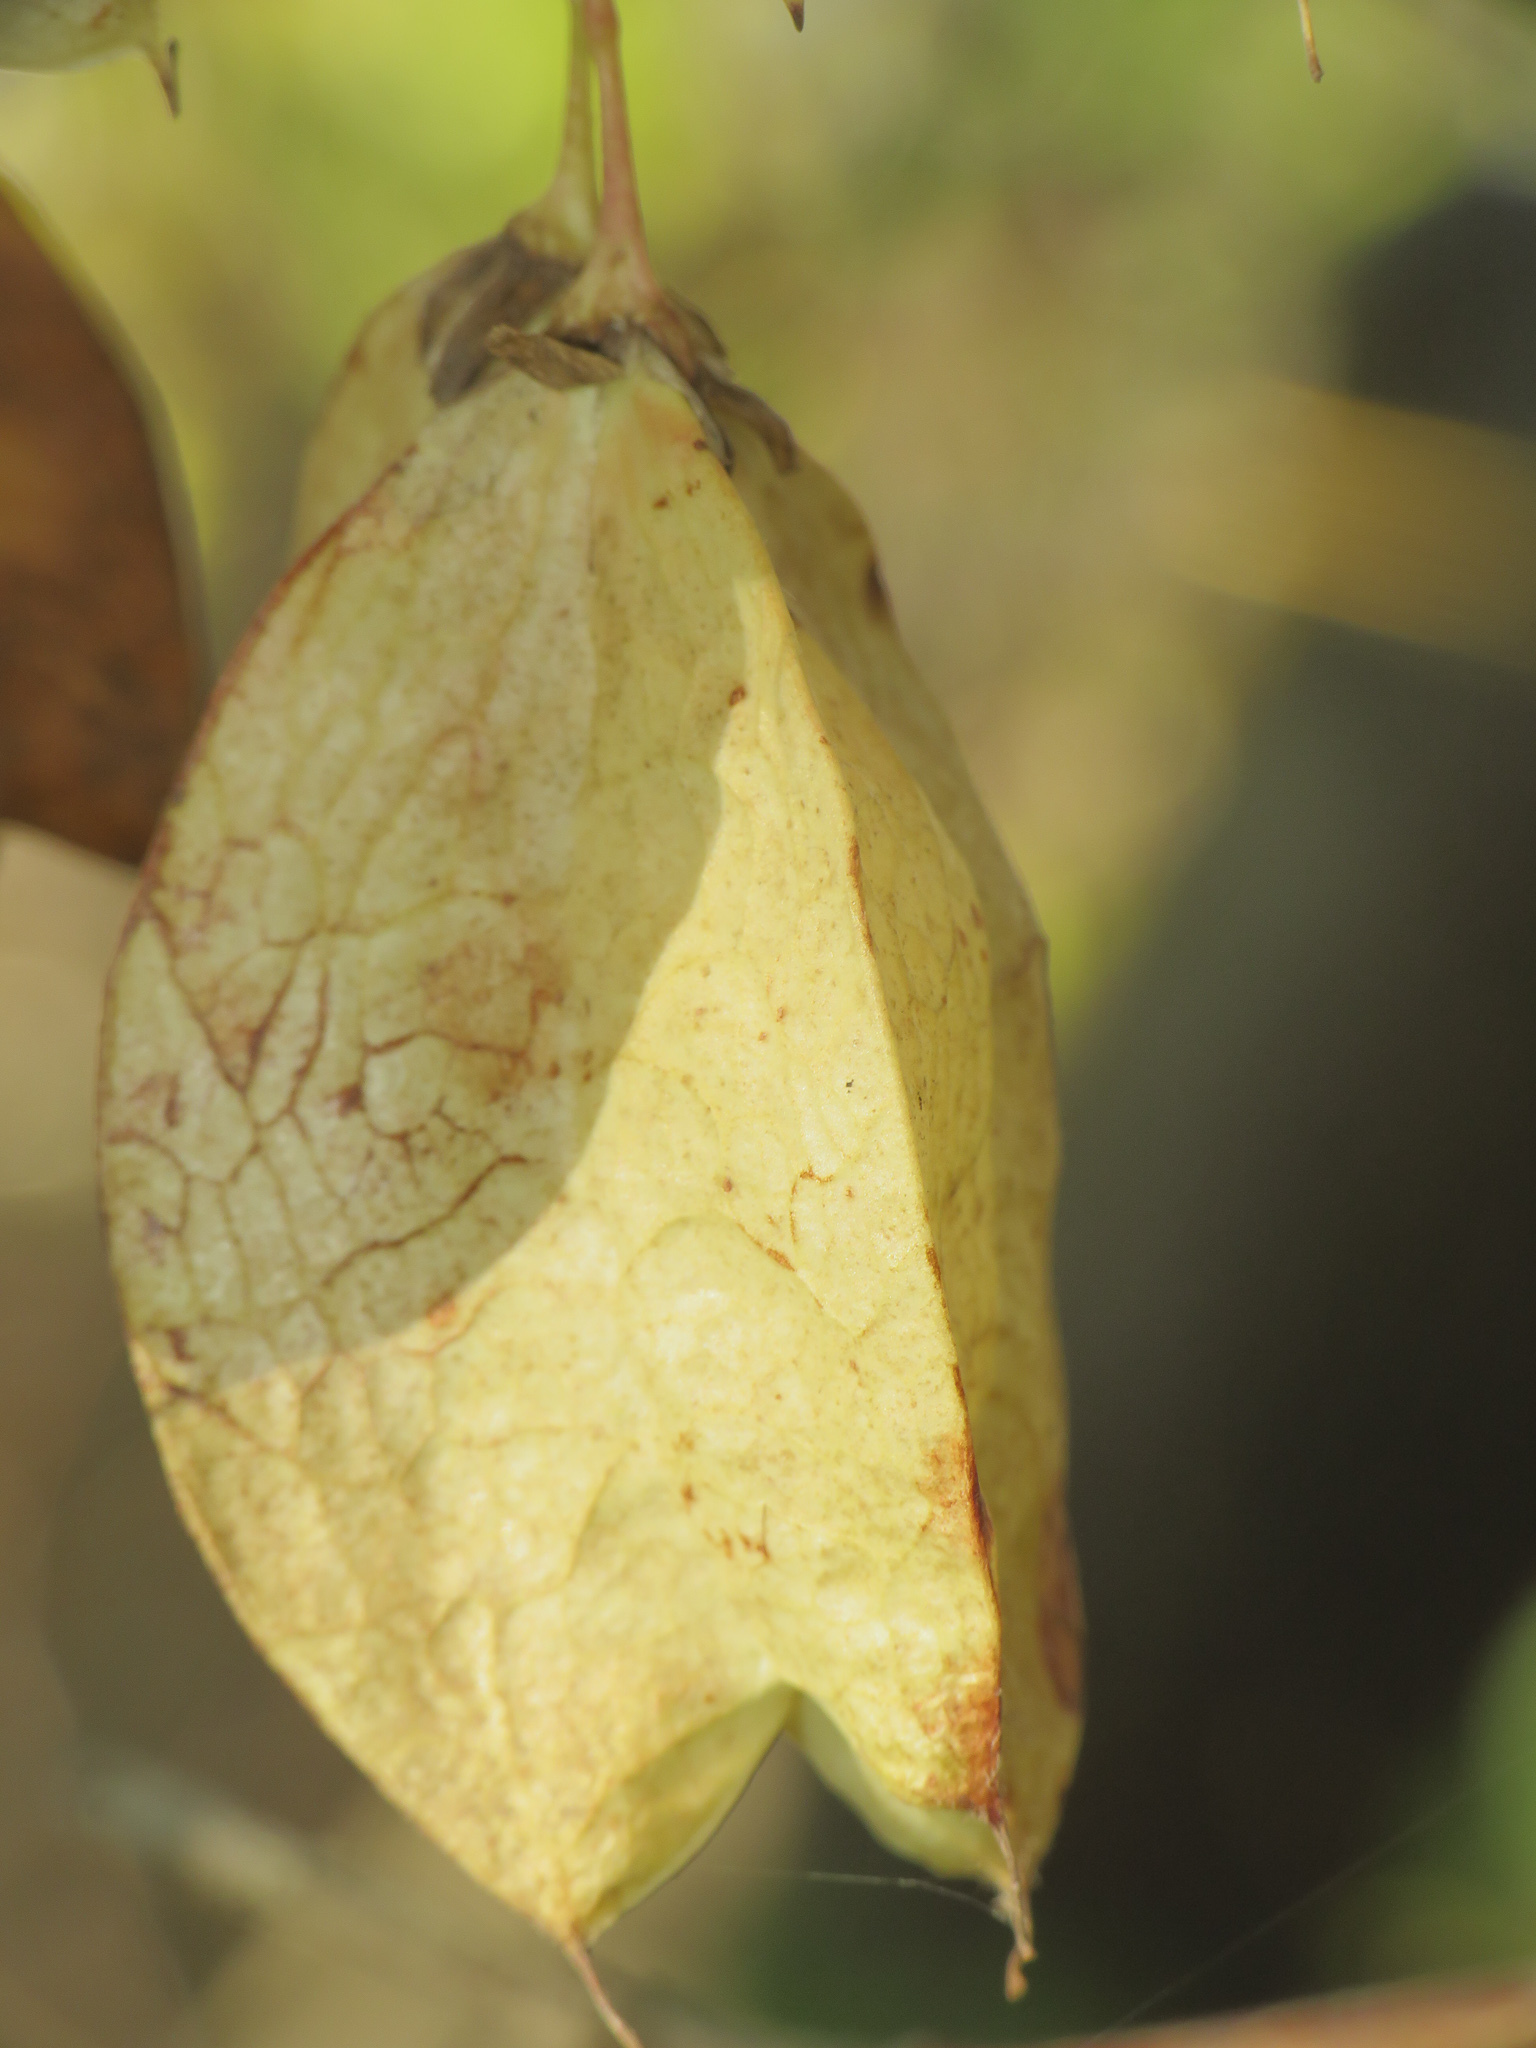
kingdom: Plantae
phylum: Tracheophyta
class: Magnoliopsida
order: Crossosomatales
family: Staphyleaceae
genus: Staphylea
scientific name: Staphylea trifolia
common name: American bladdernut
